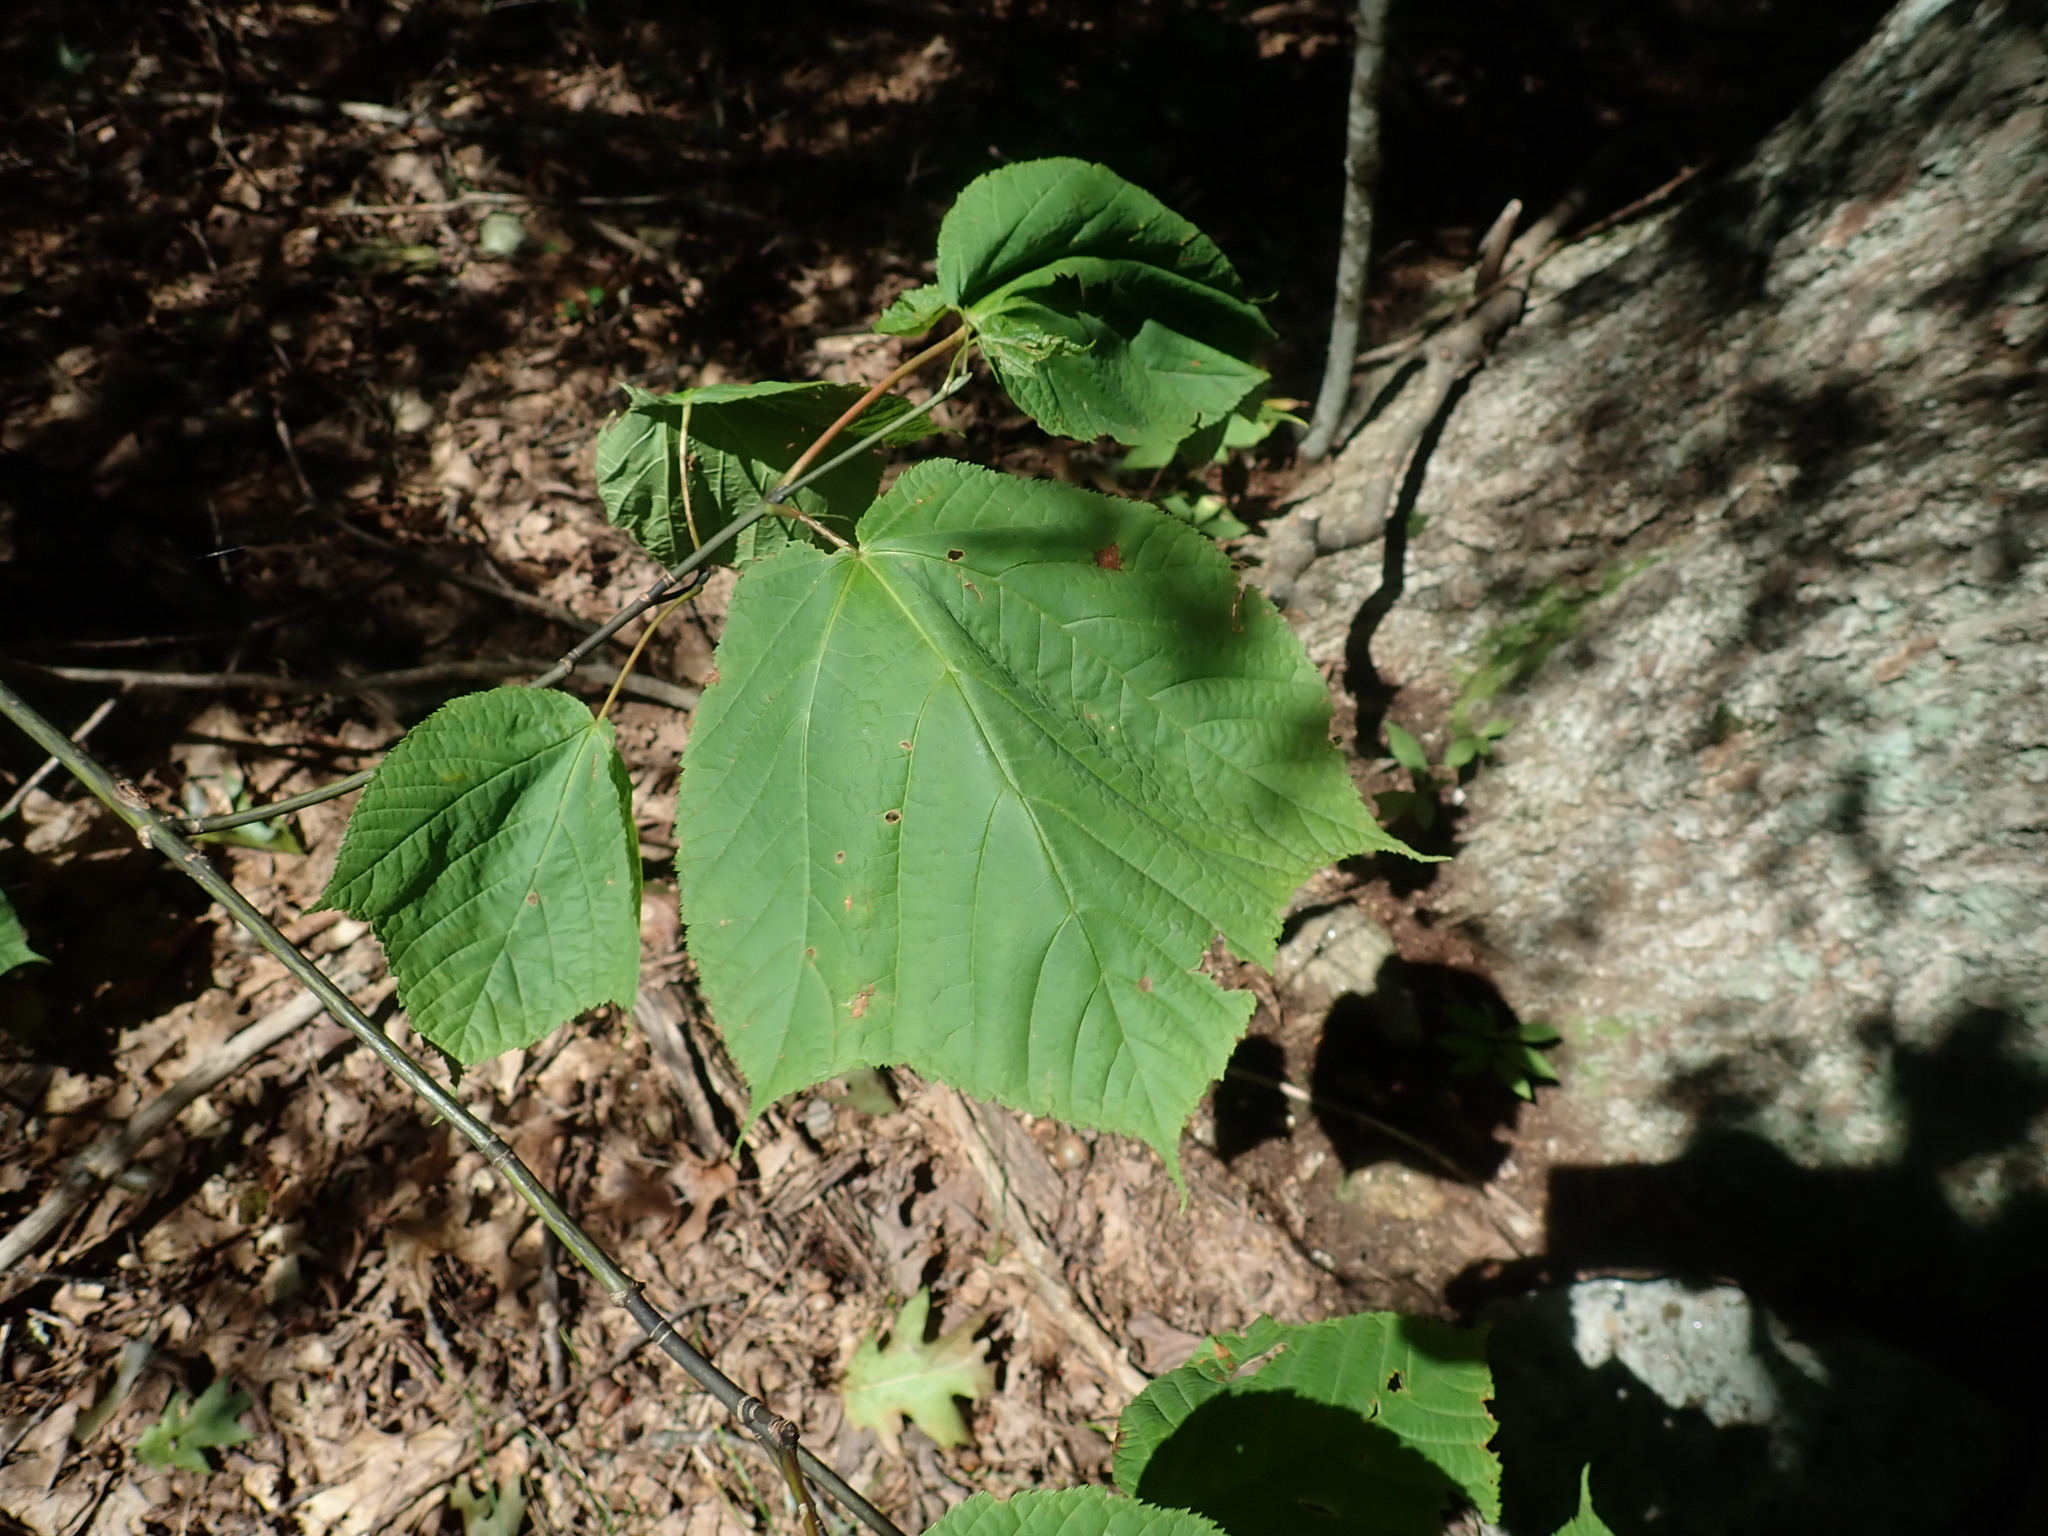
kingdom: Plantae
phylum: Tracheophyta
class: Magnoliopsida
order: Sapindales
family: Sapindaceae
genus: Acer
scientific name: Acer pensylvanicum
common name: Moosewood
